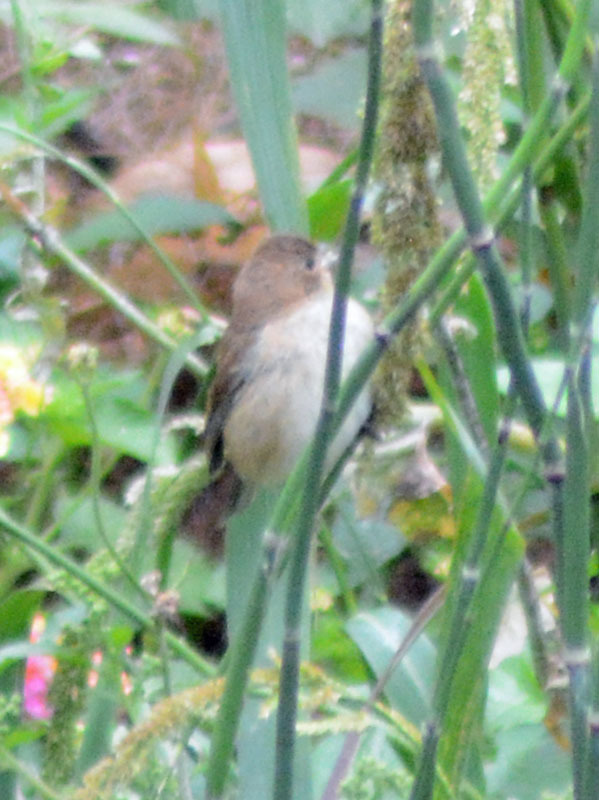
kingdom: Animalia
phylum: Chordata
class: Aves
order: Passeriformes
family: Thraupidae
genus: Sporophila
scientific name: Sporophila torqueola
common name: White-collared seedeater
